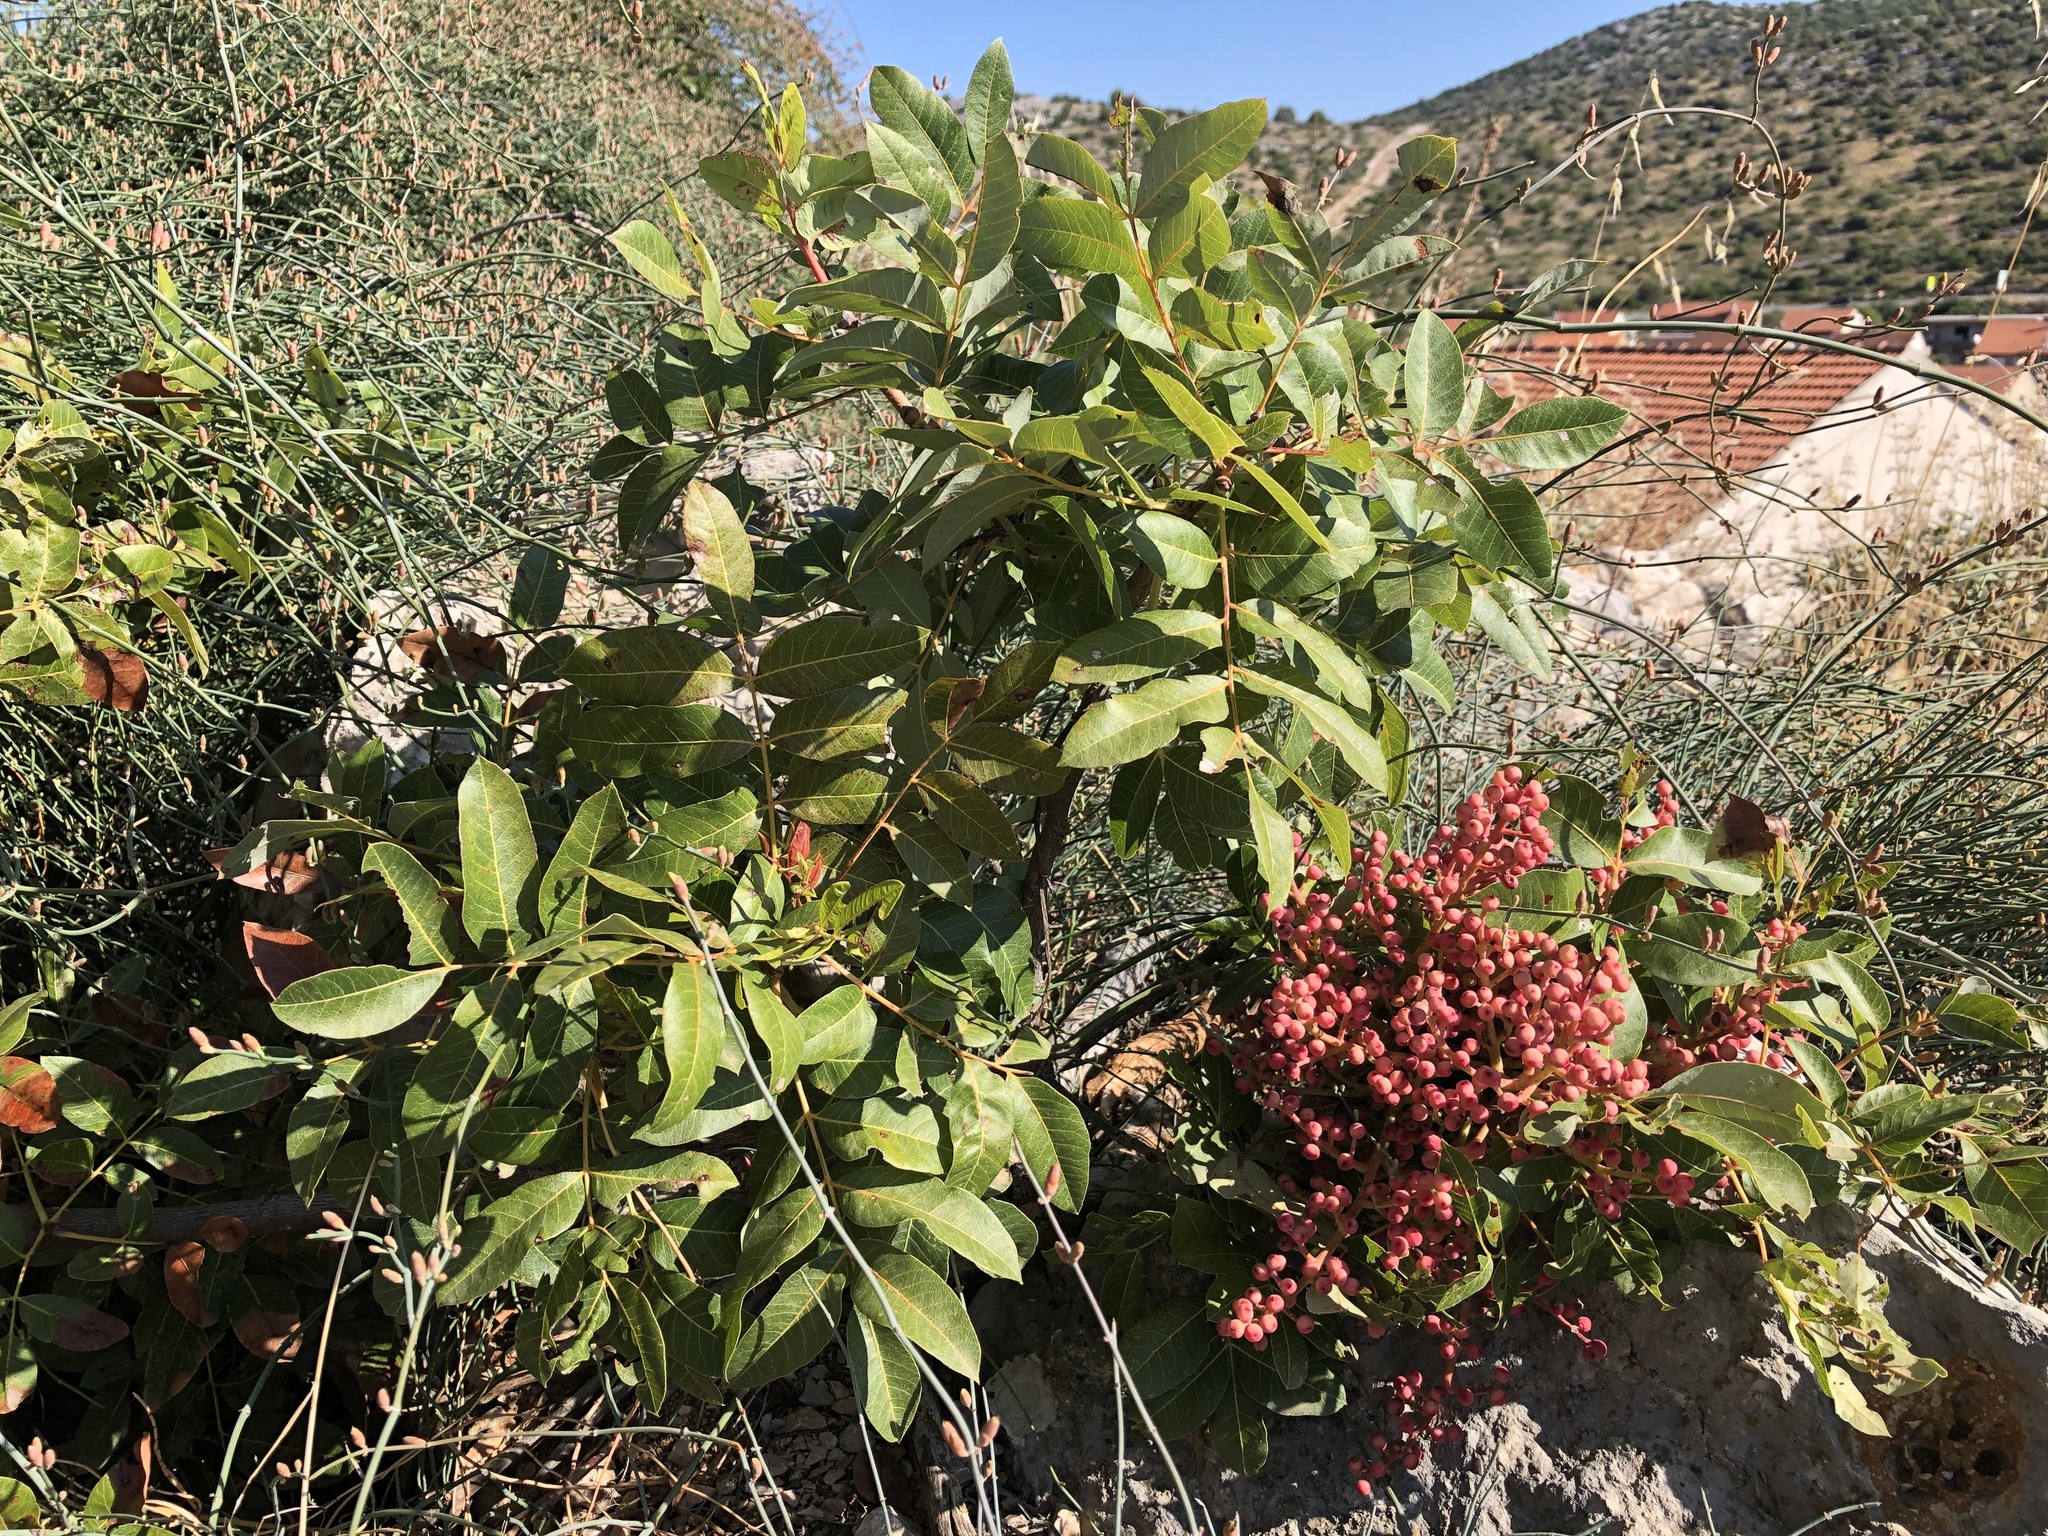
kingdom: Plantae
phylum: Tracheophyta
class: Magnoliopsida
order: Sapindales
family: Anacardiaceae
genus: Pistacia
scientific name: Pistacia terebinthus
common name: Terebinth
